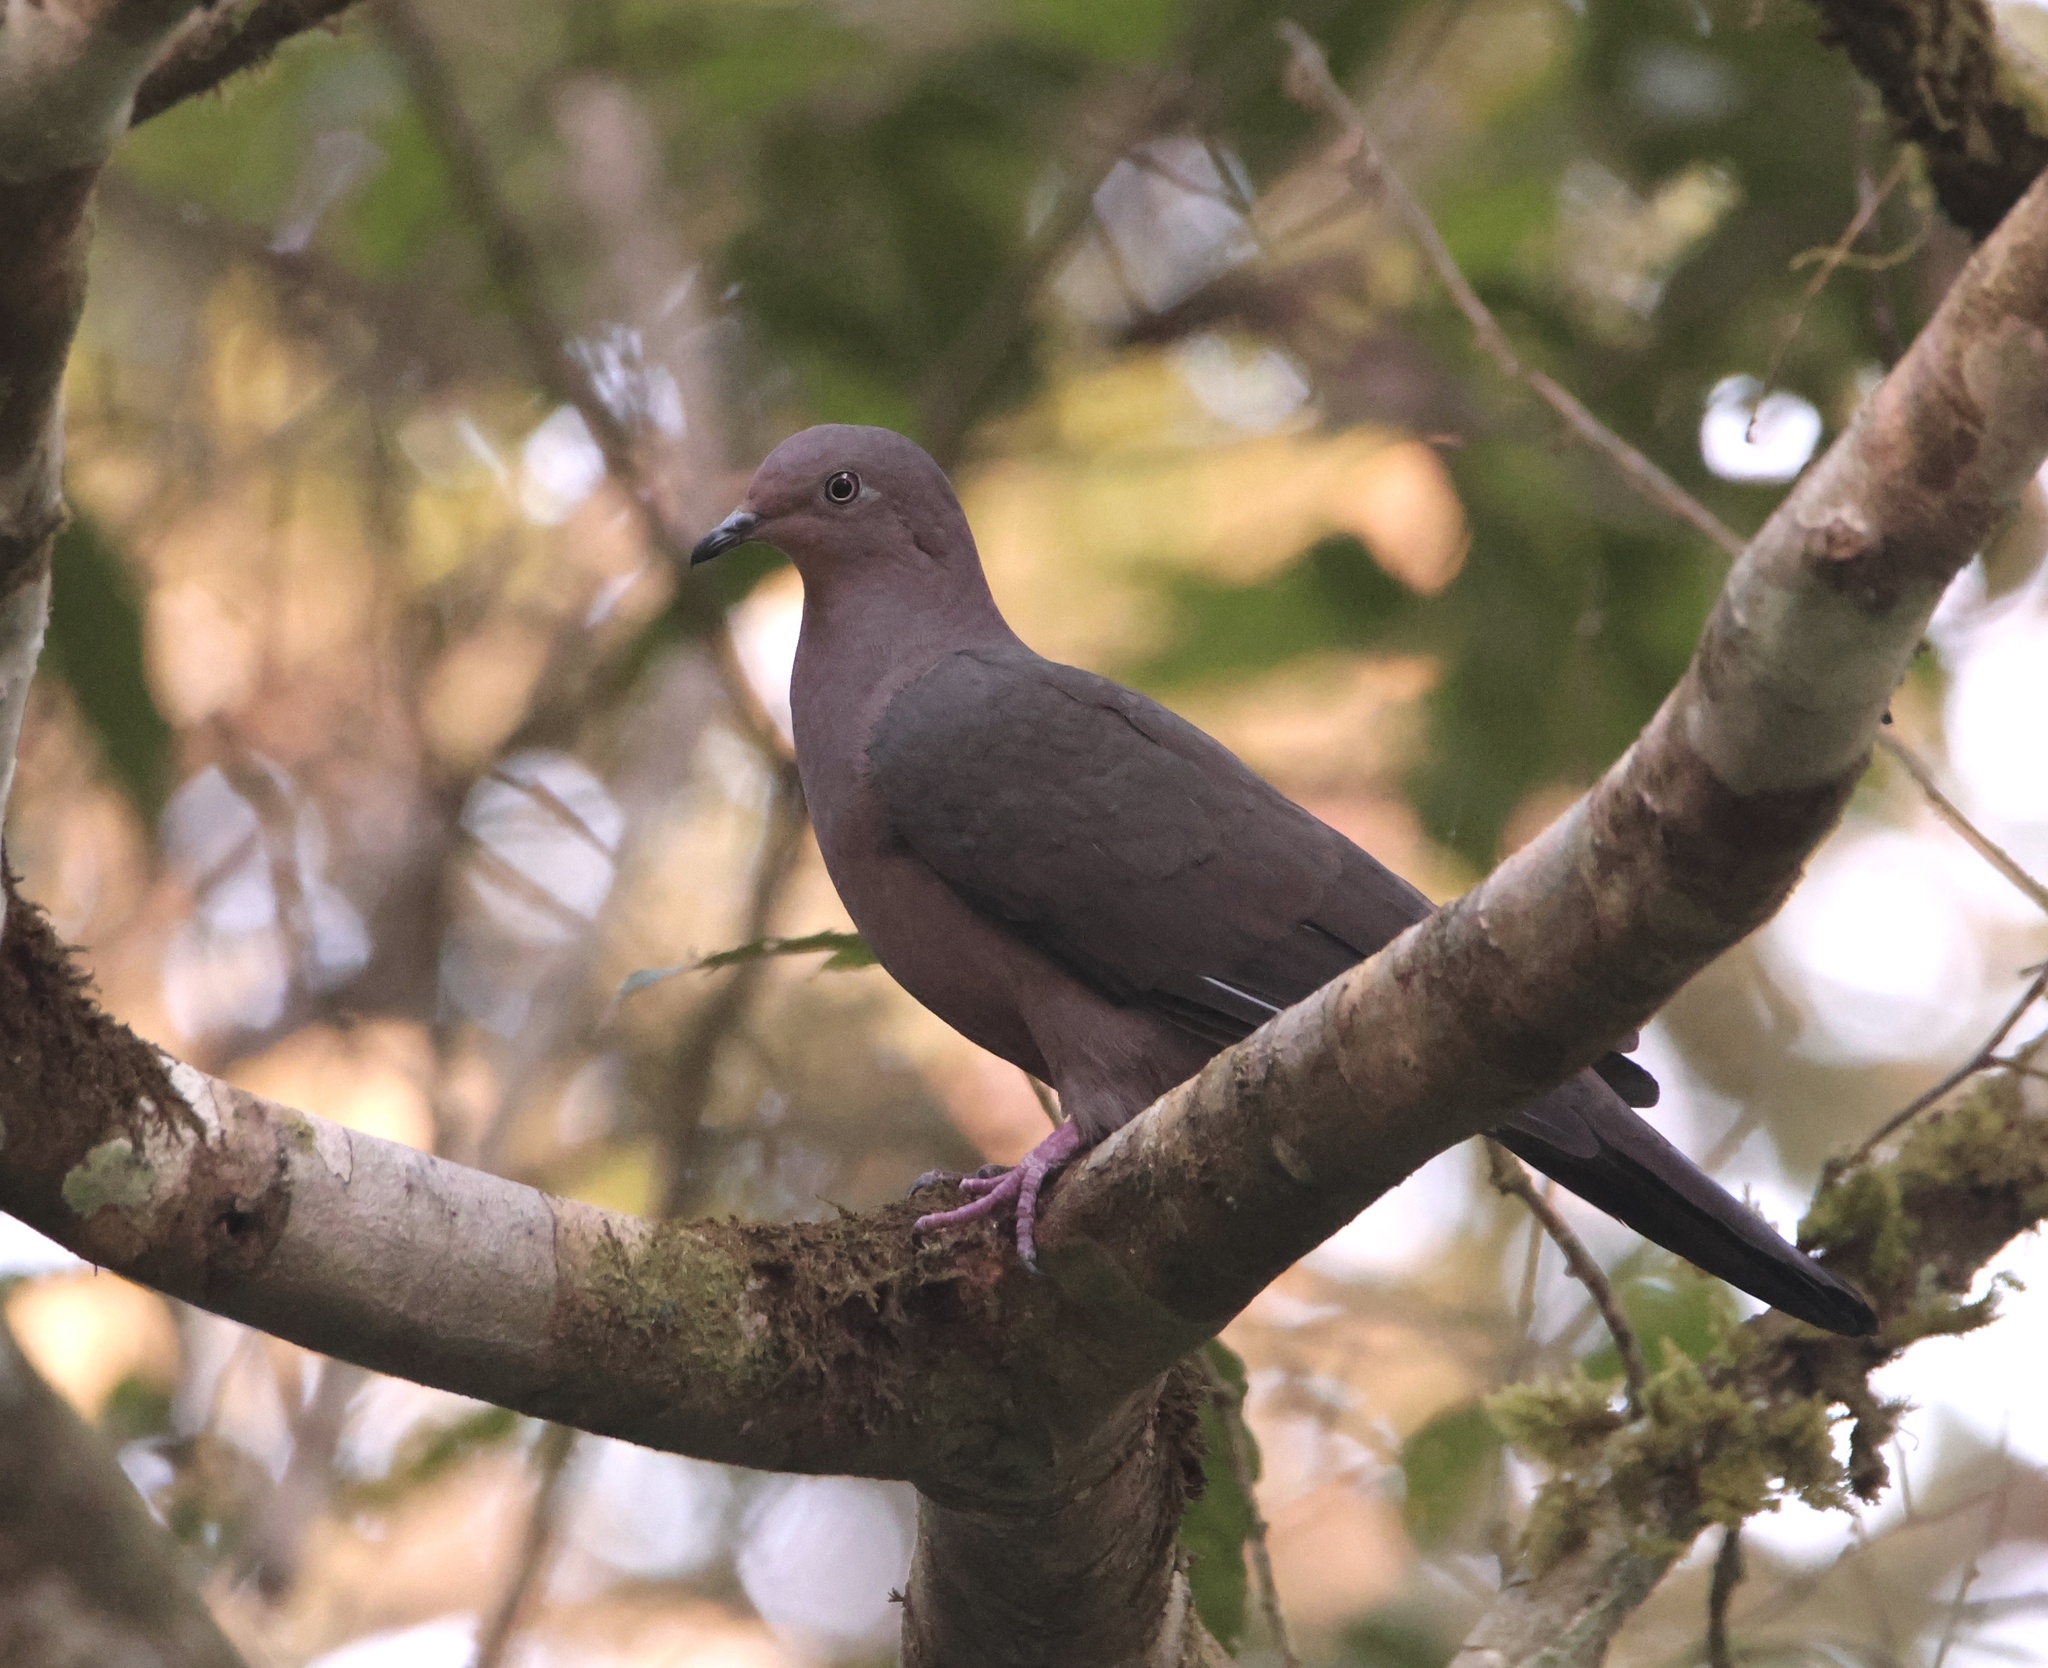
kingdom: Animalia
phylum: Chordata
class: Aves
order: Columbiformes
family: Columbidae
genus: Patagioenas
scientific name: Patagioenas plumbea
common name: Plumbeous pigeon
